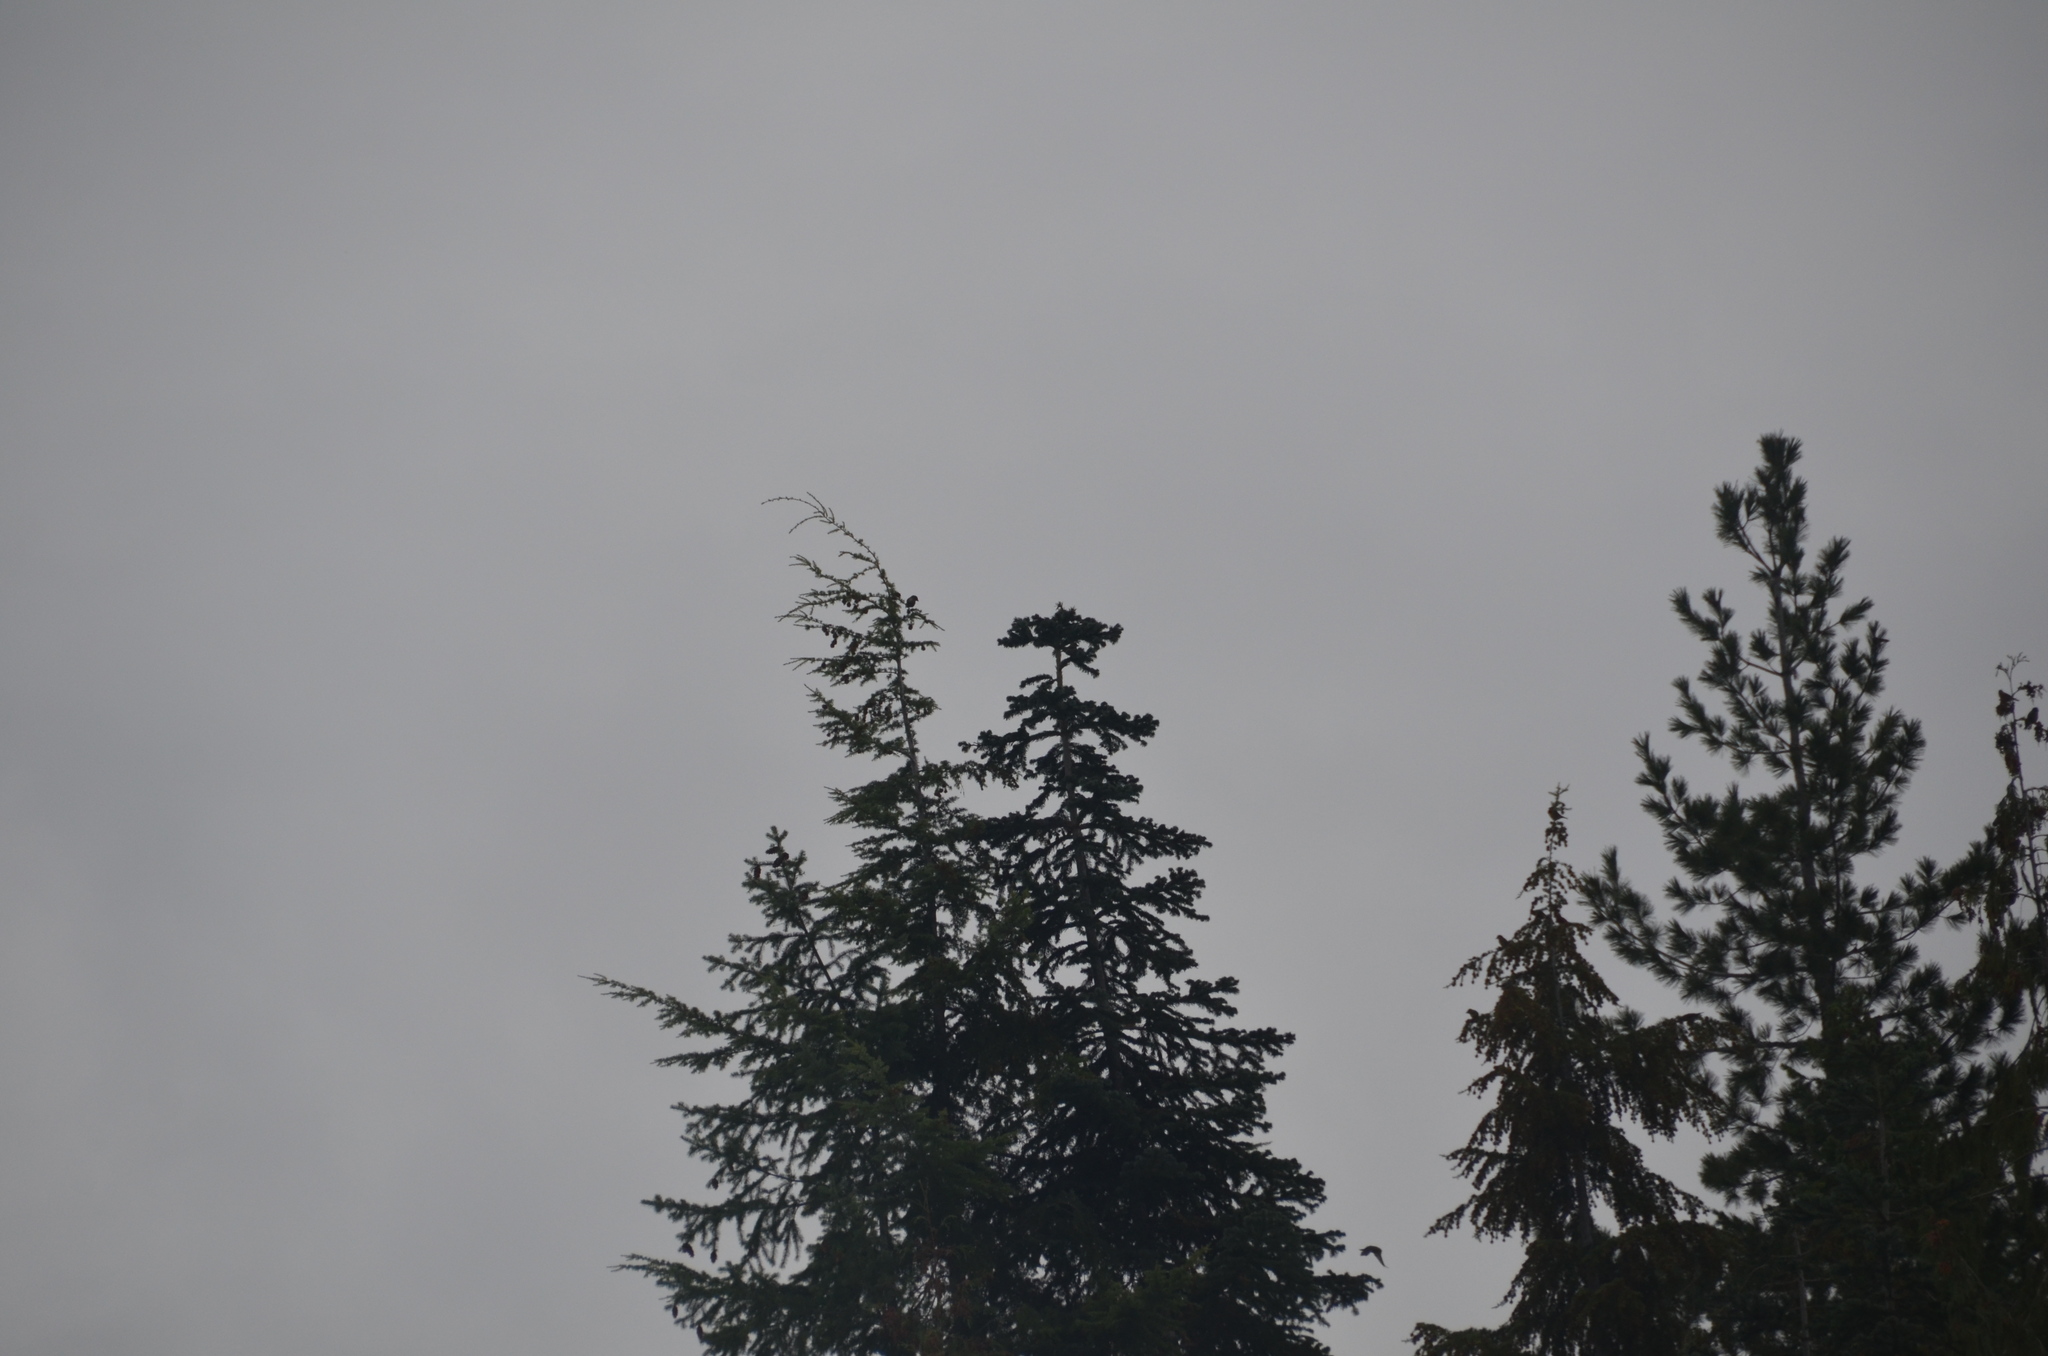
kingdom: Animalia
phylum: Chordata
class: Aves
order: Passeriformes
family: Fringillidae
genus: Loxia
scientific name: Loxia curvirostra
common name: Red crossbill
